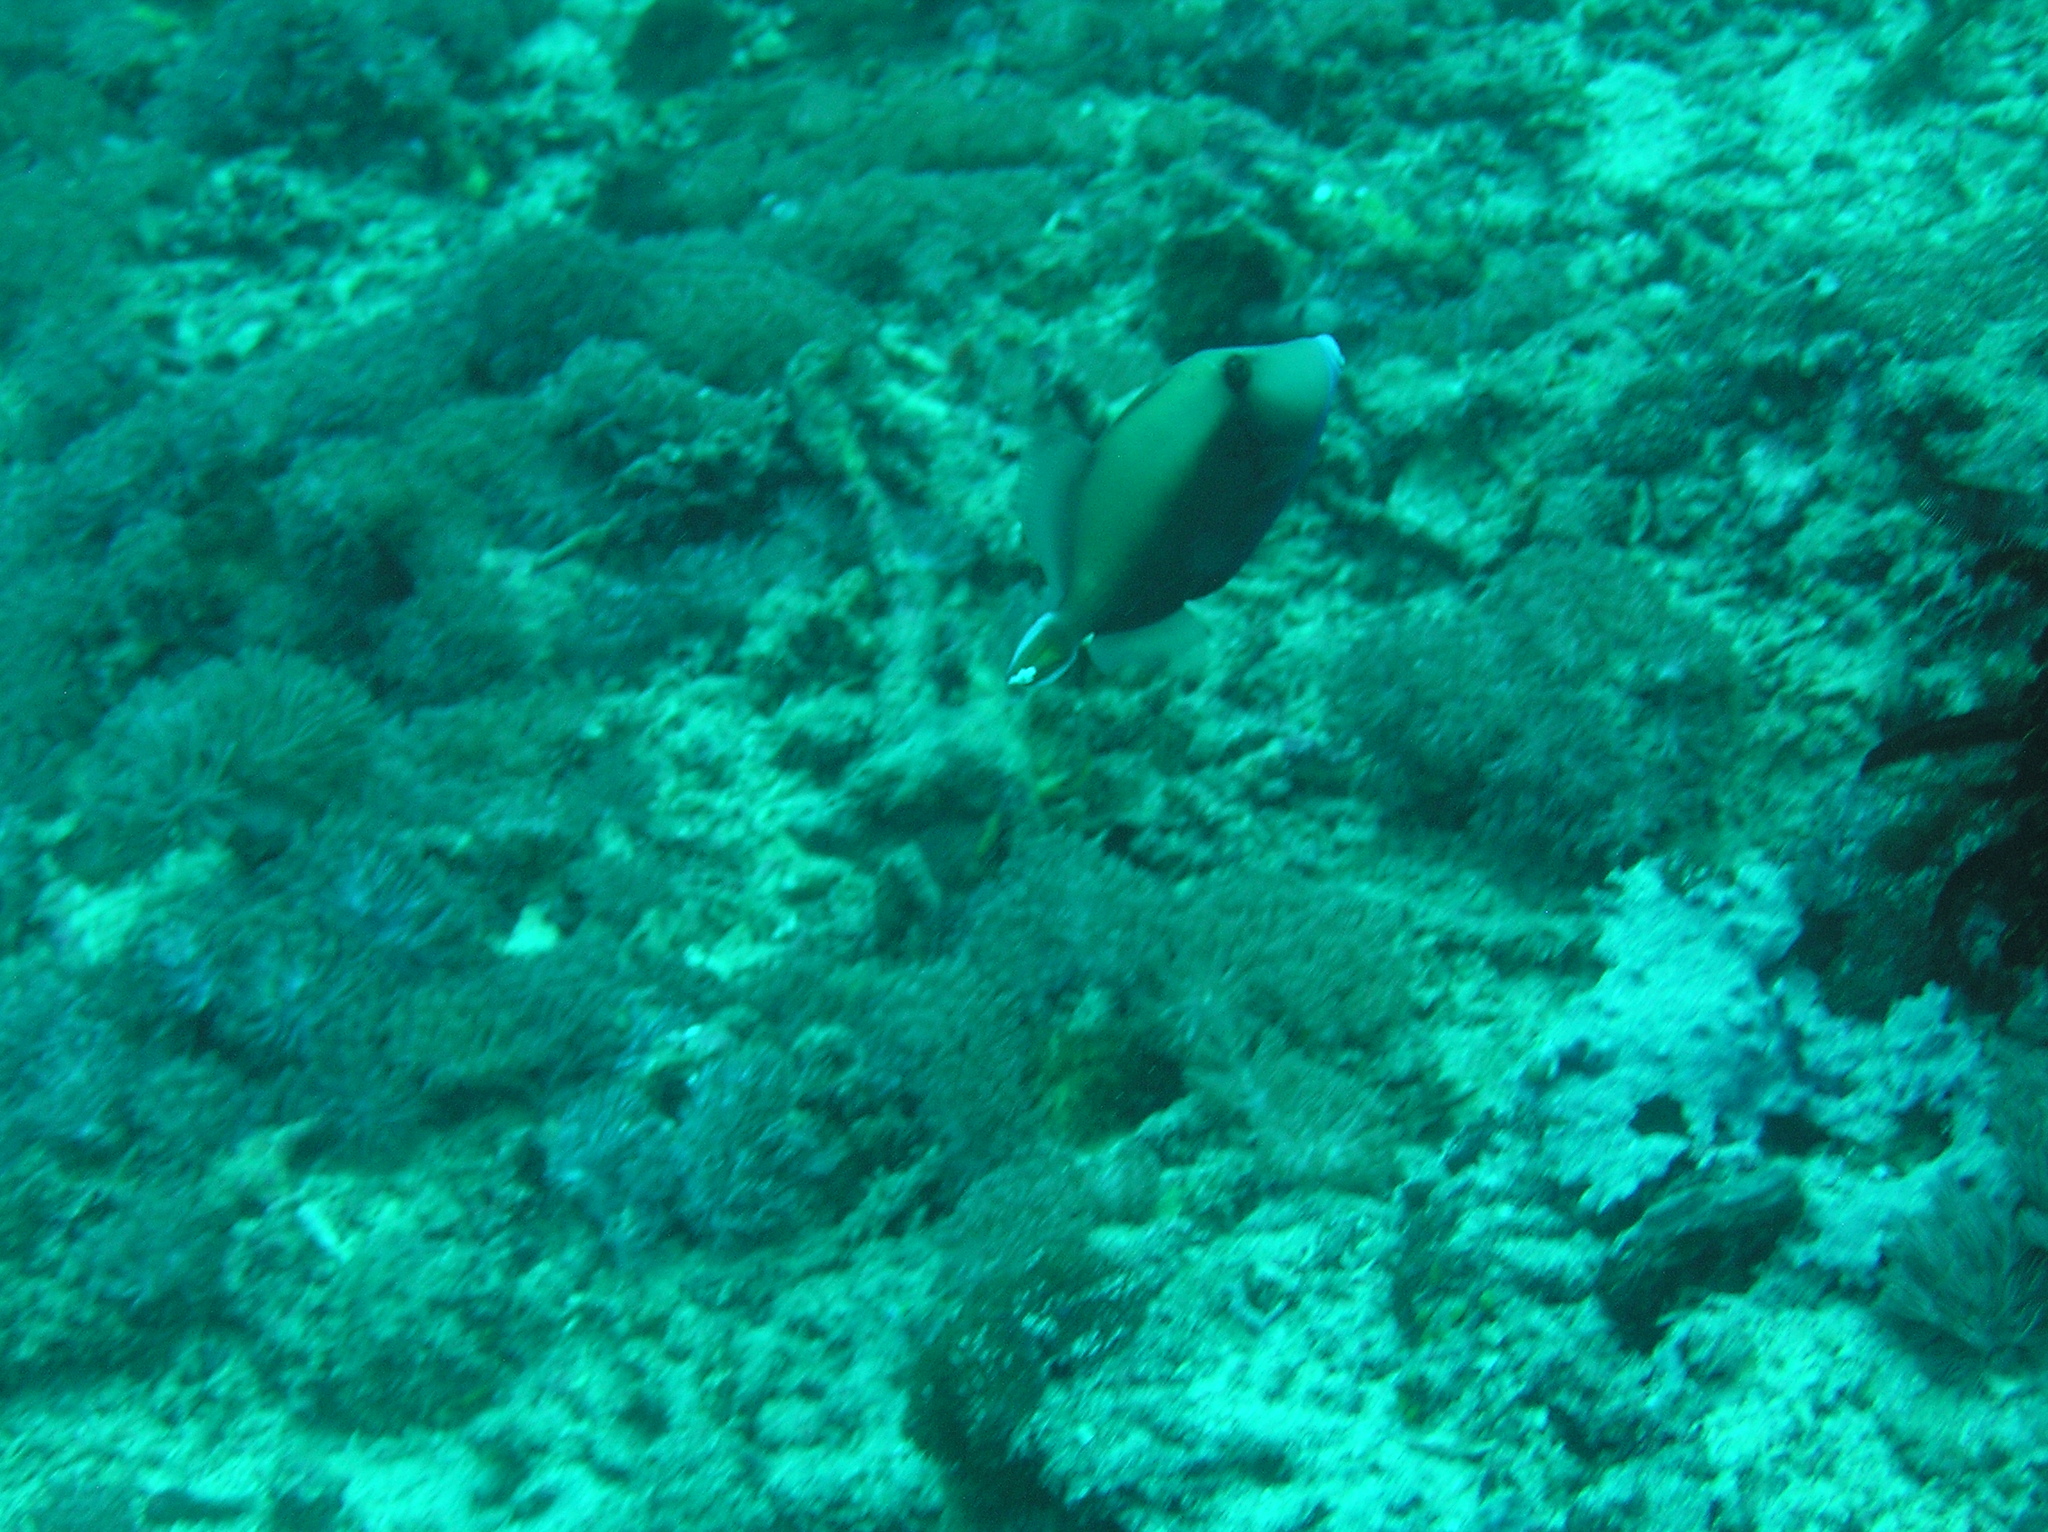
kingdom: Animalia
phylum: Chordata
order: Tetraodontiformes
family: Balistidae
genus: Sufflamen
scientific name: Sufflamen chrysopterum
